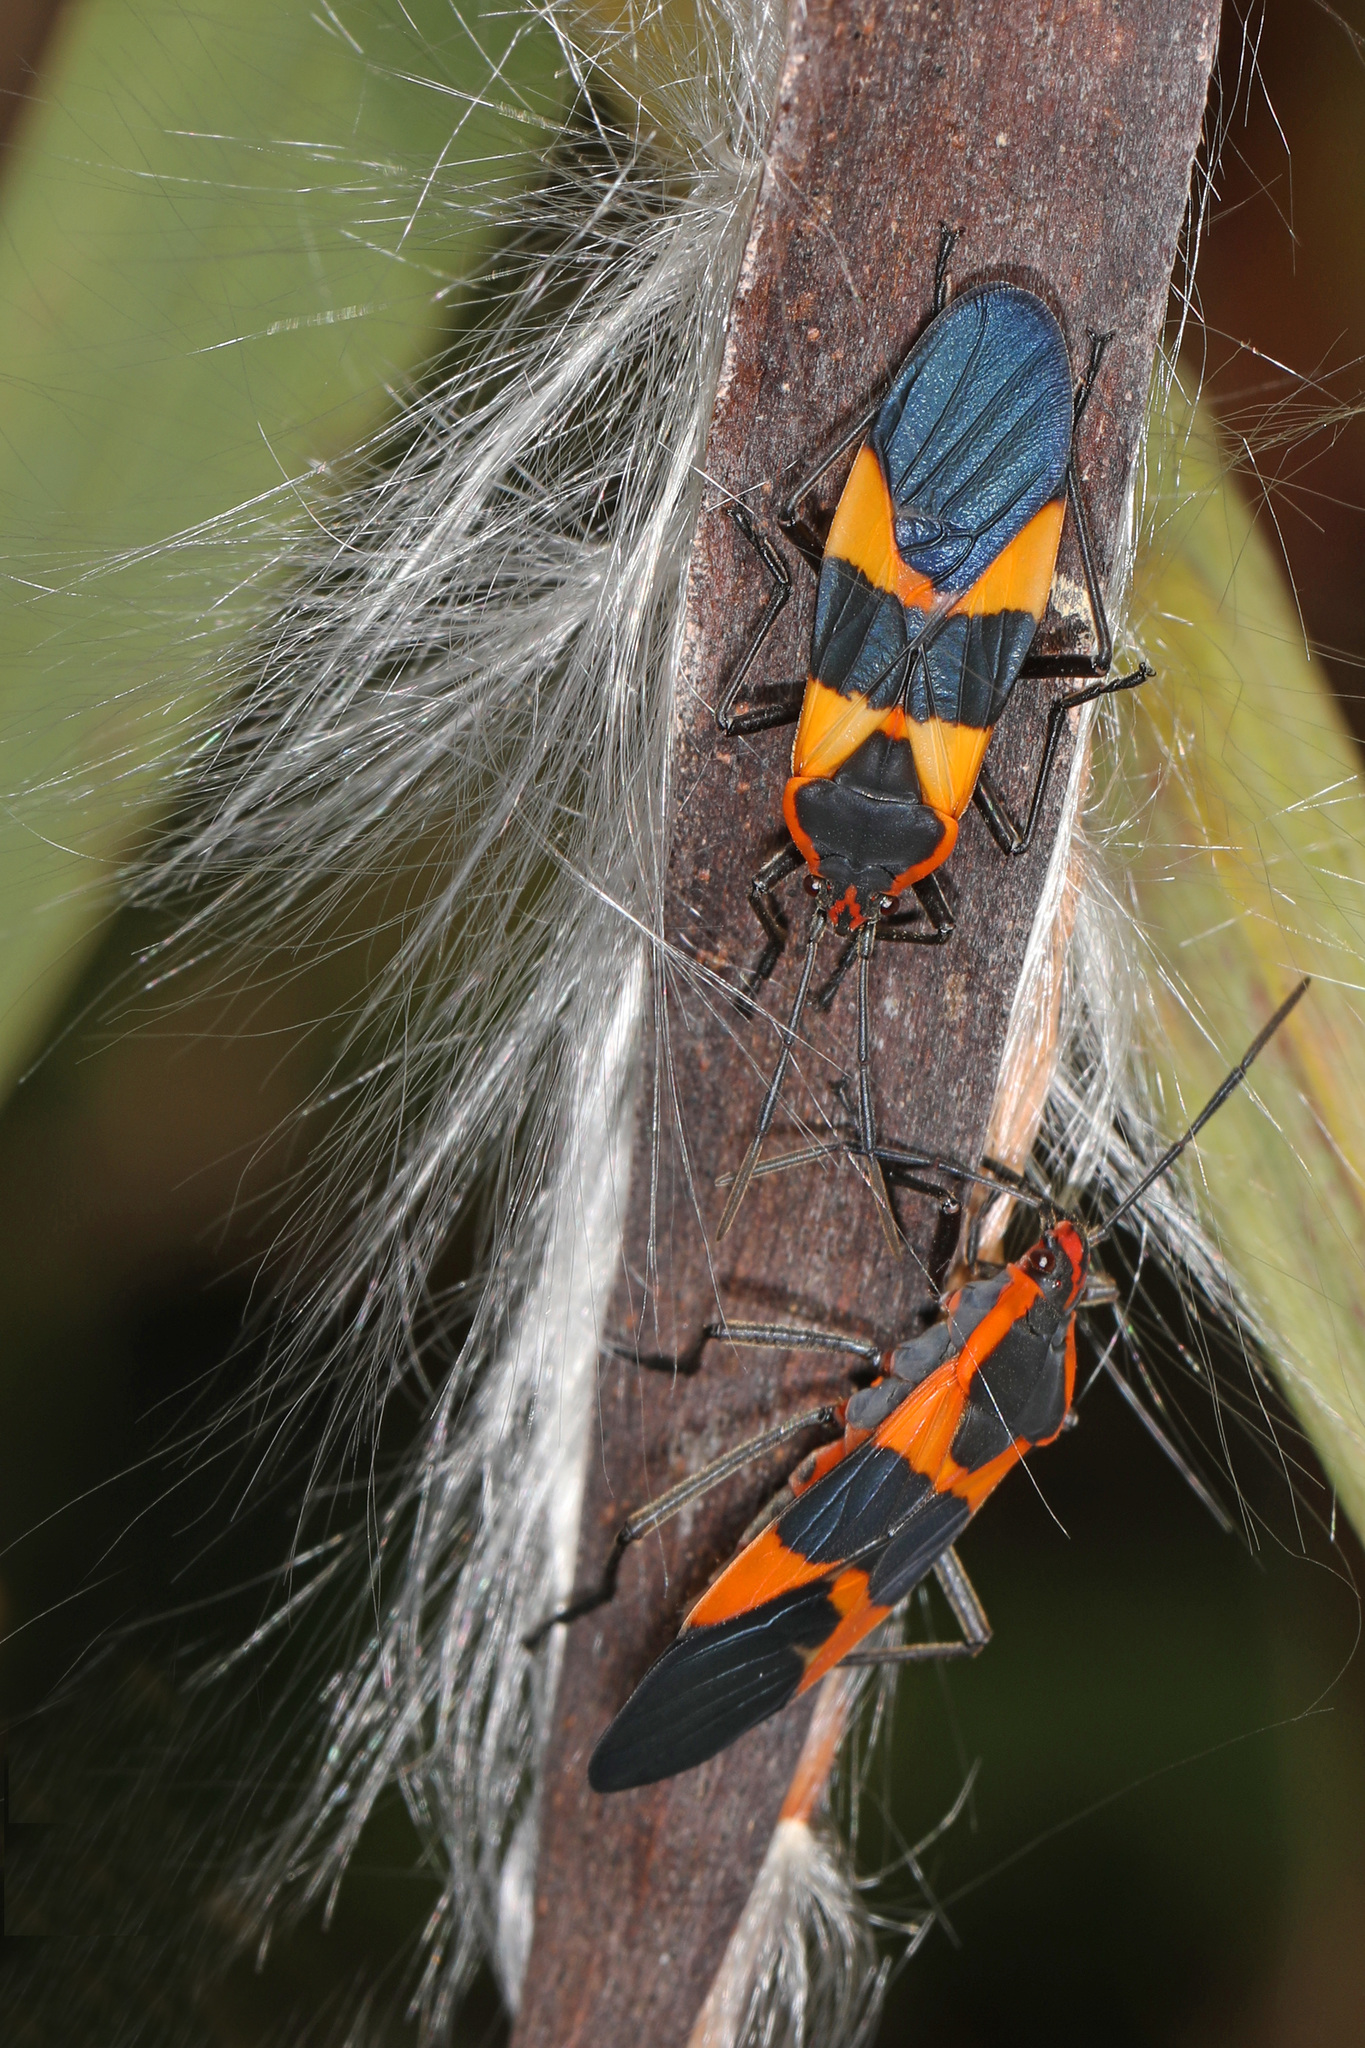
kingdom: Animalia
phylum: Arthropoda
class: Insecta
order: Hemiptera
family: Lygaeidae
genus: Oncopeltus
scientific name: Oncopeltus fasciatus
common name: Large milkweed bug
